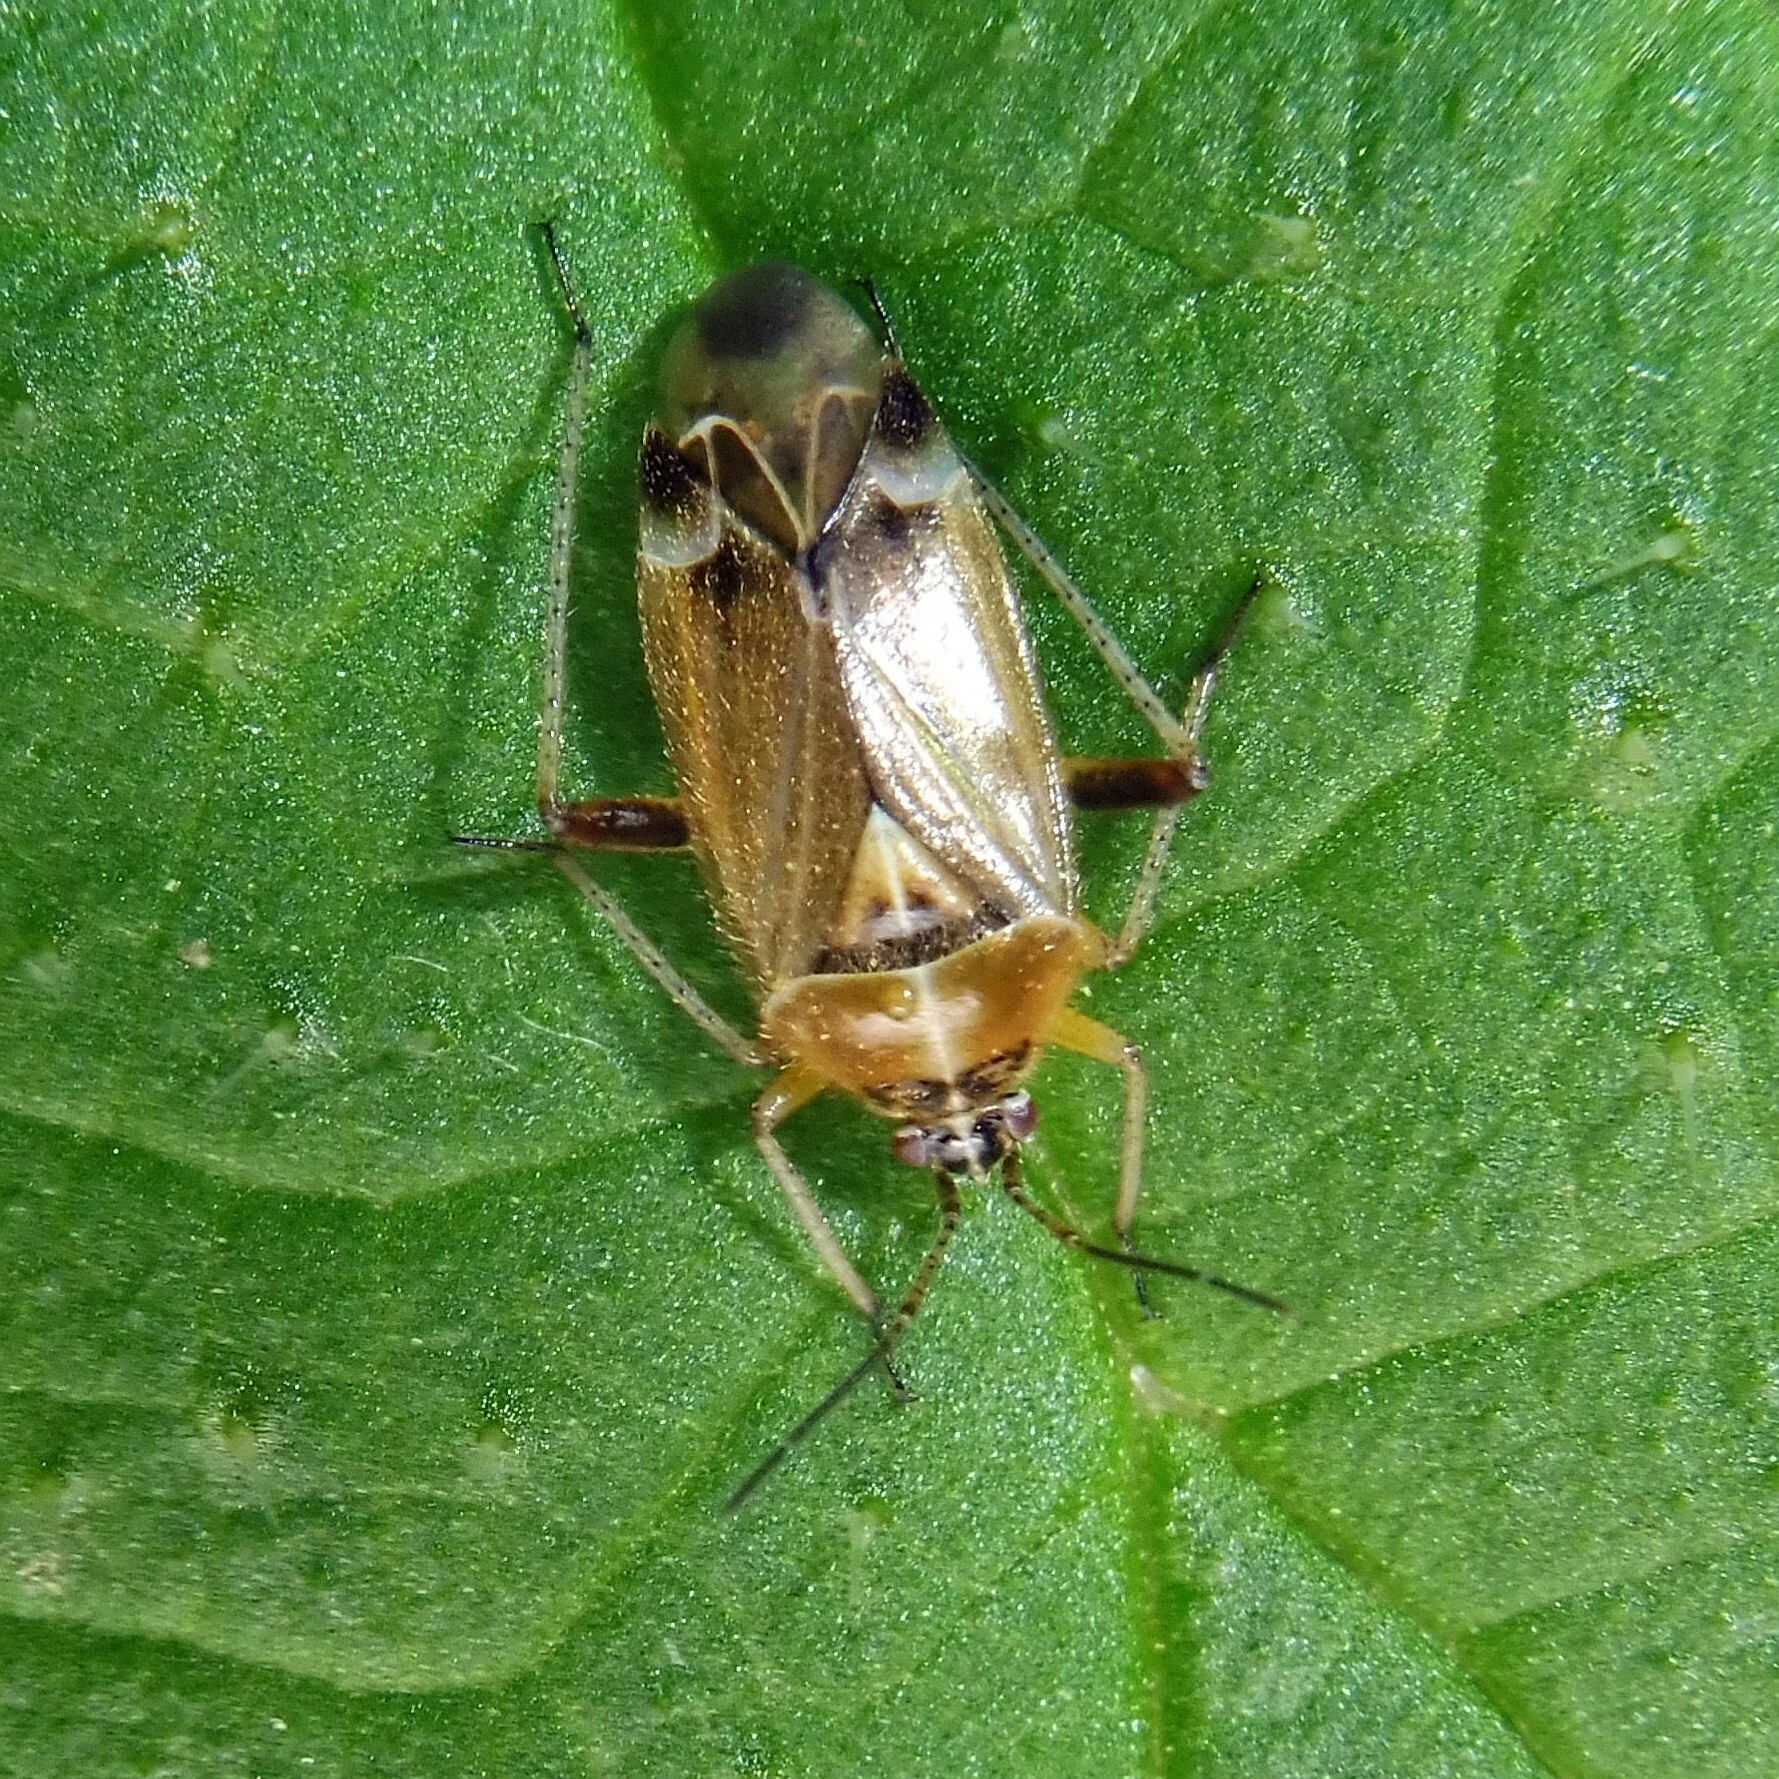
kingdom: Animalia
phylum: Arthropoda
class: Insecta
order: Hemiptera
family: Miridae
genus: Harpocera
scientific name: Harpocera thoracica
